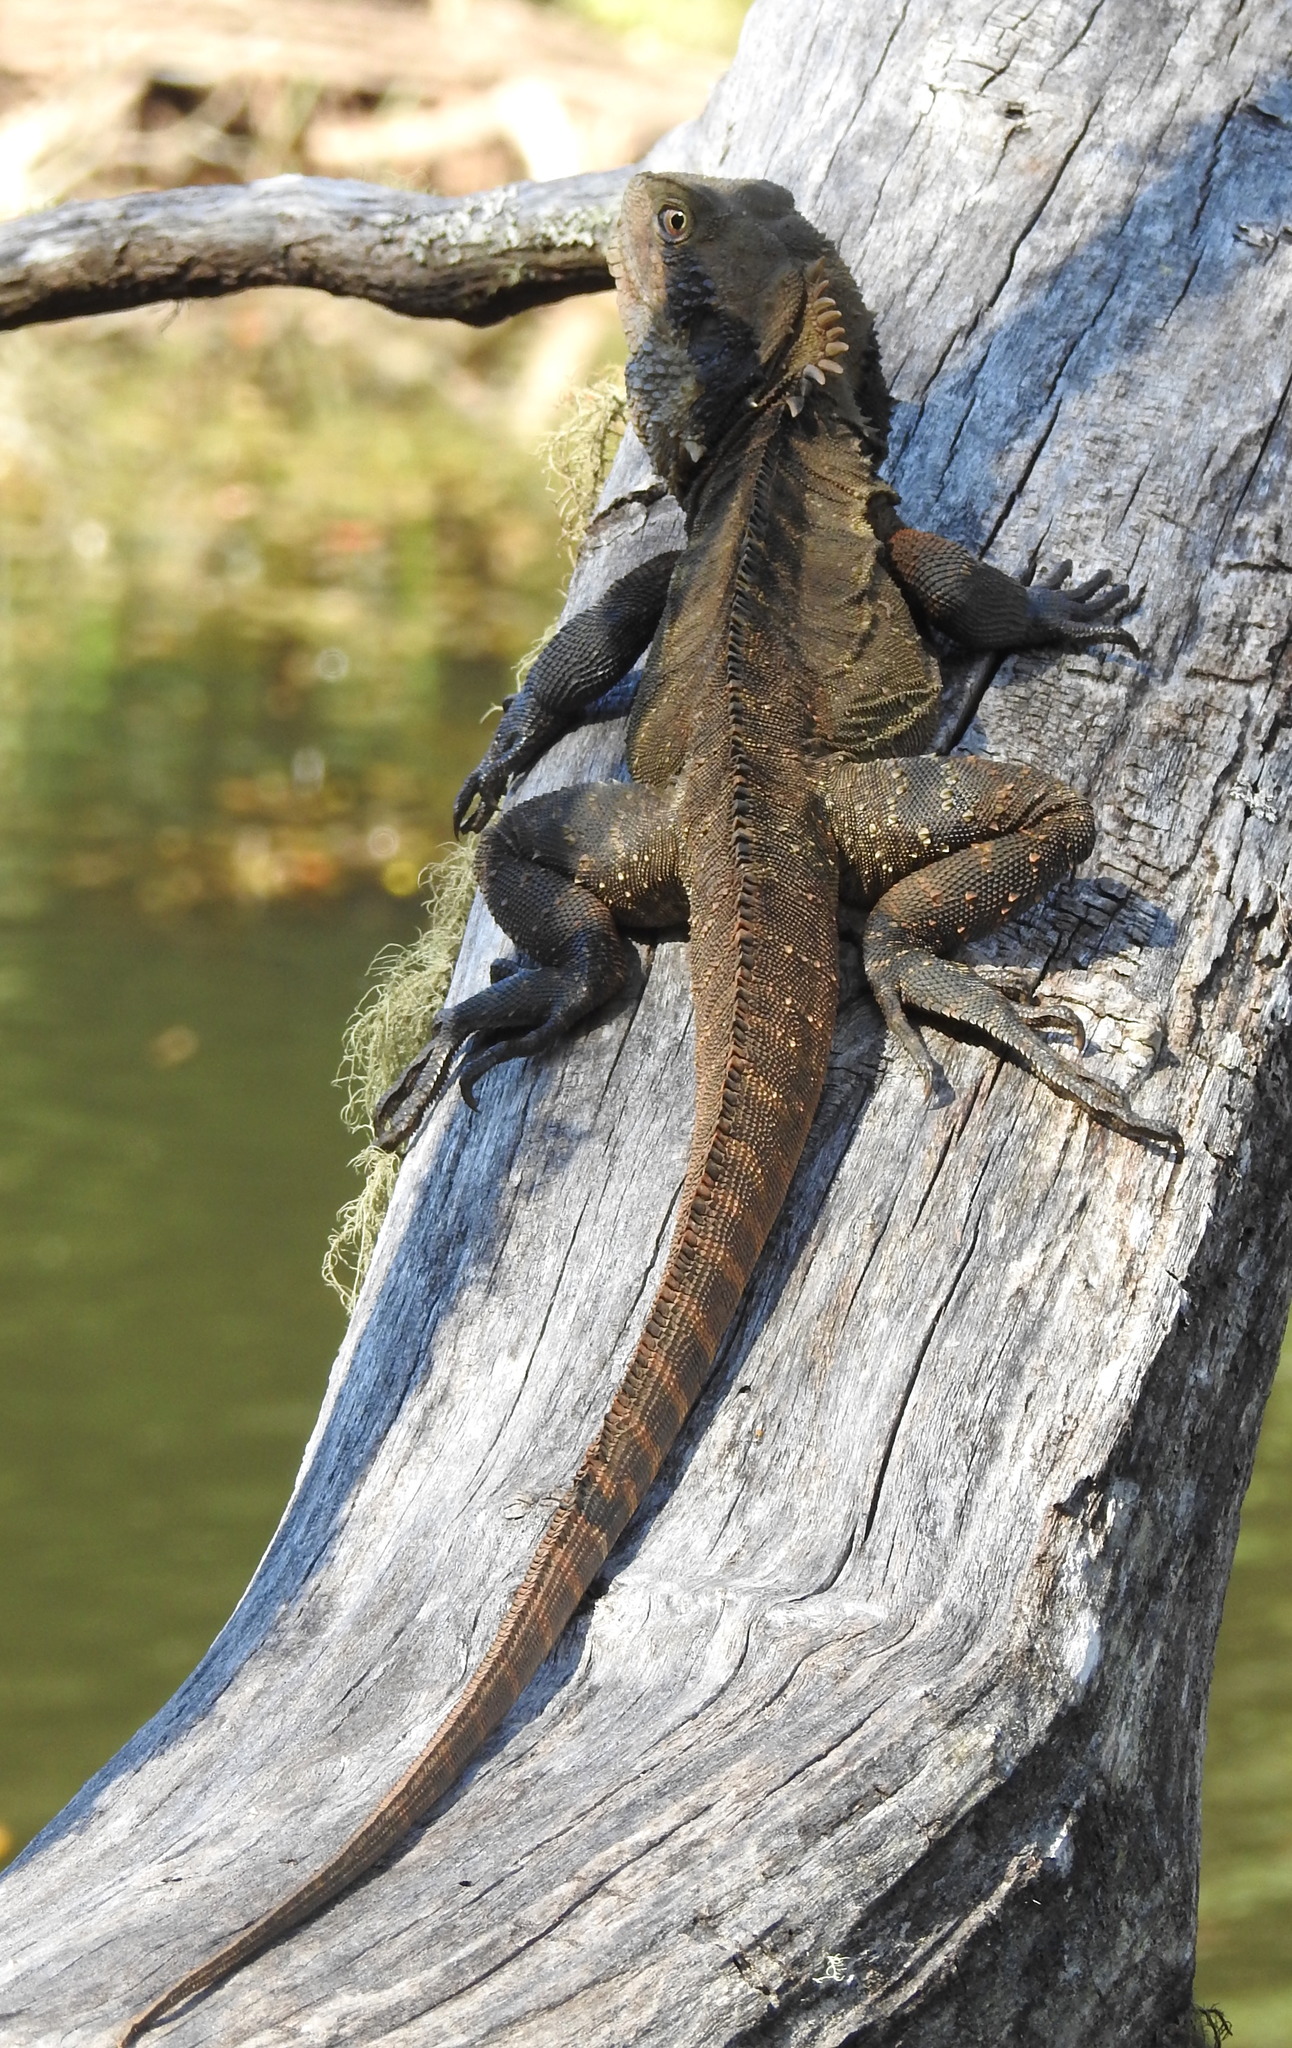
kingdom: Animalia
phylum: Chordata
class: Squamata
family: Agamidae
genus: Intellagama
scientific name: Intellagama lesueurii
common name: Eastern water dragon
